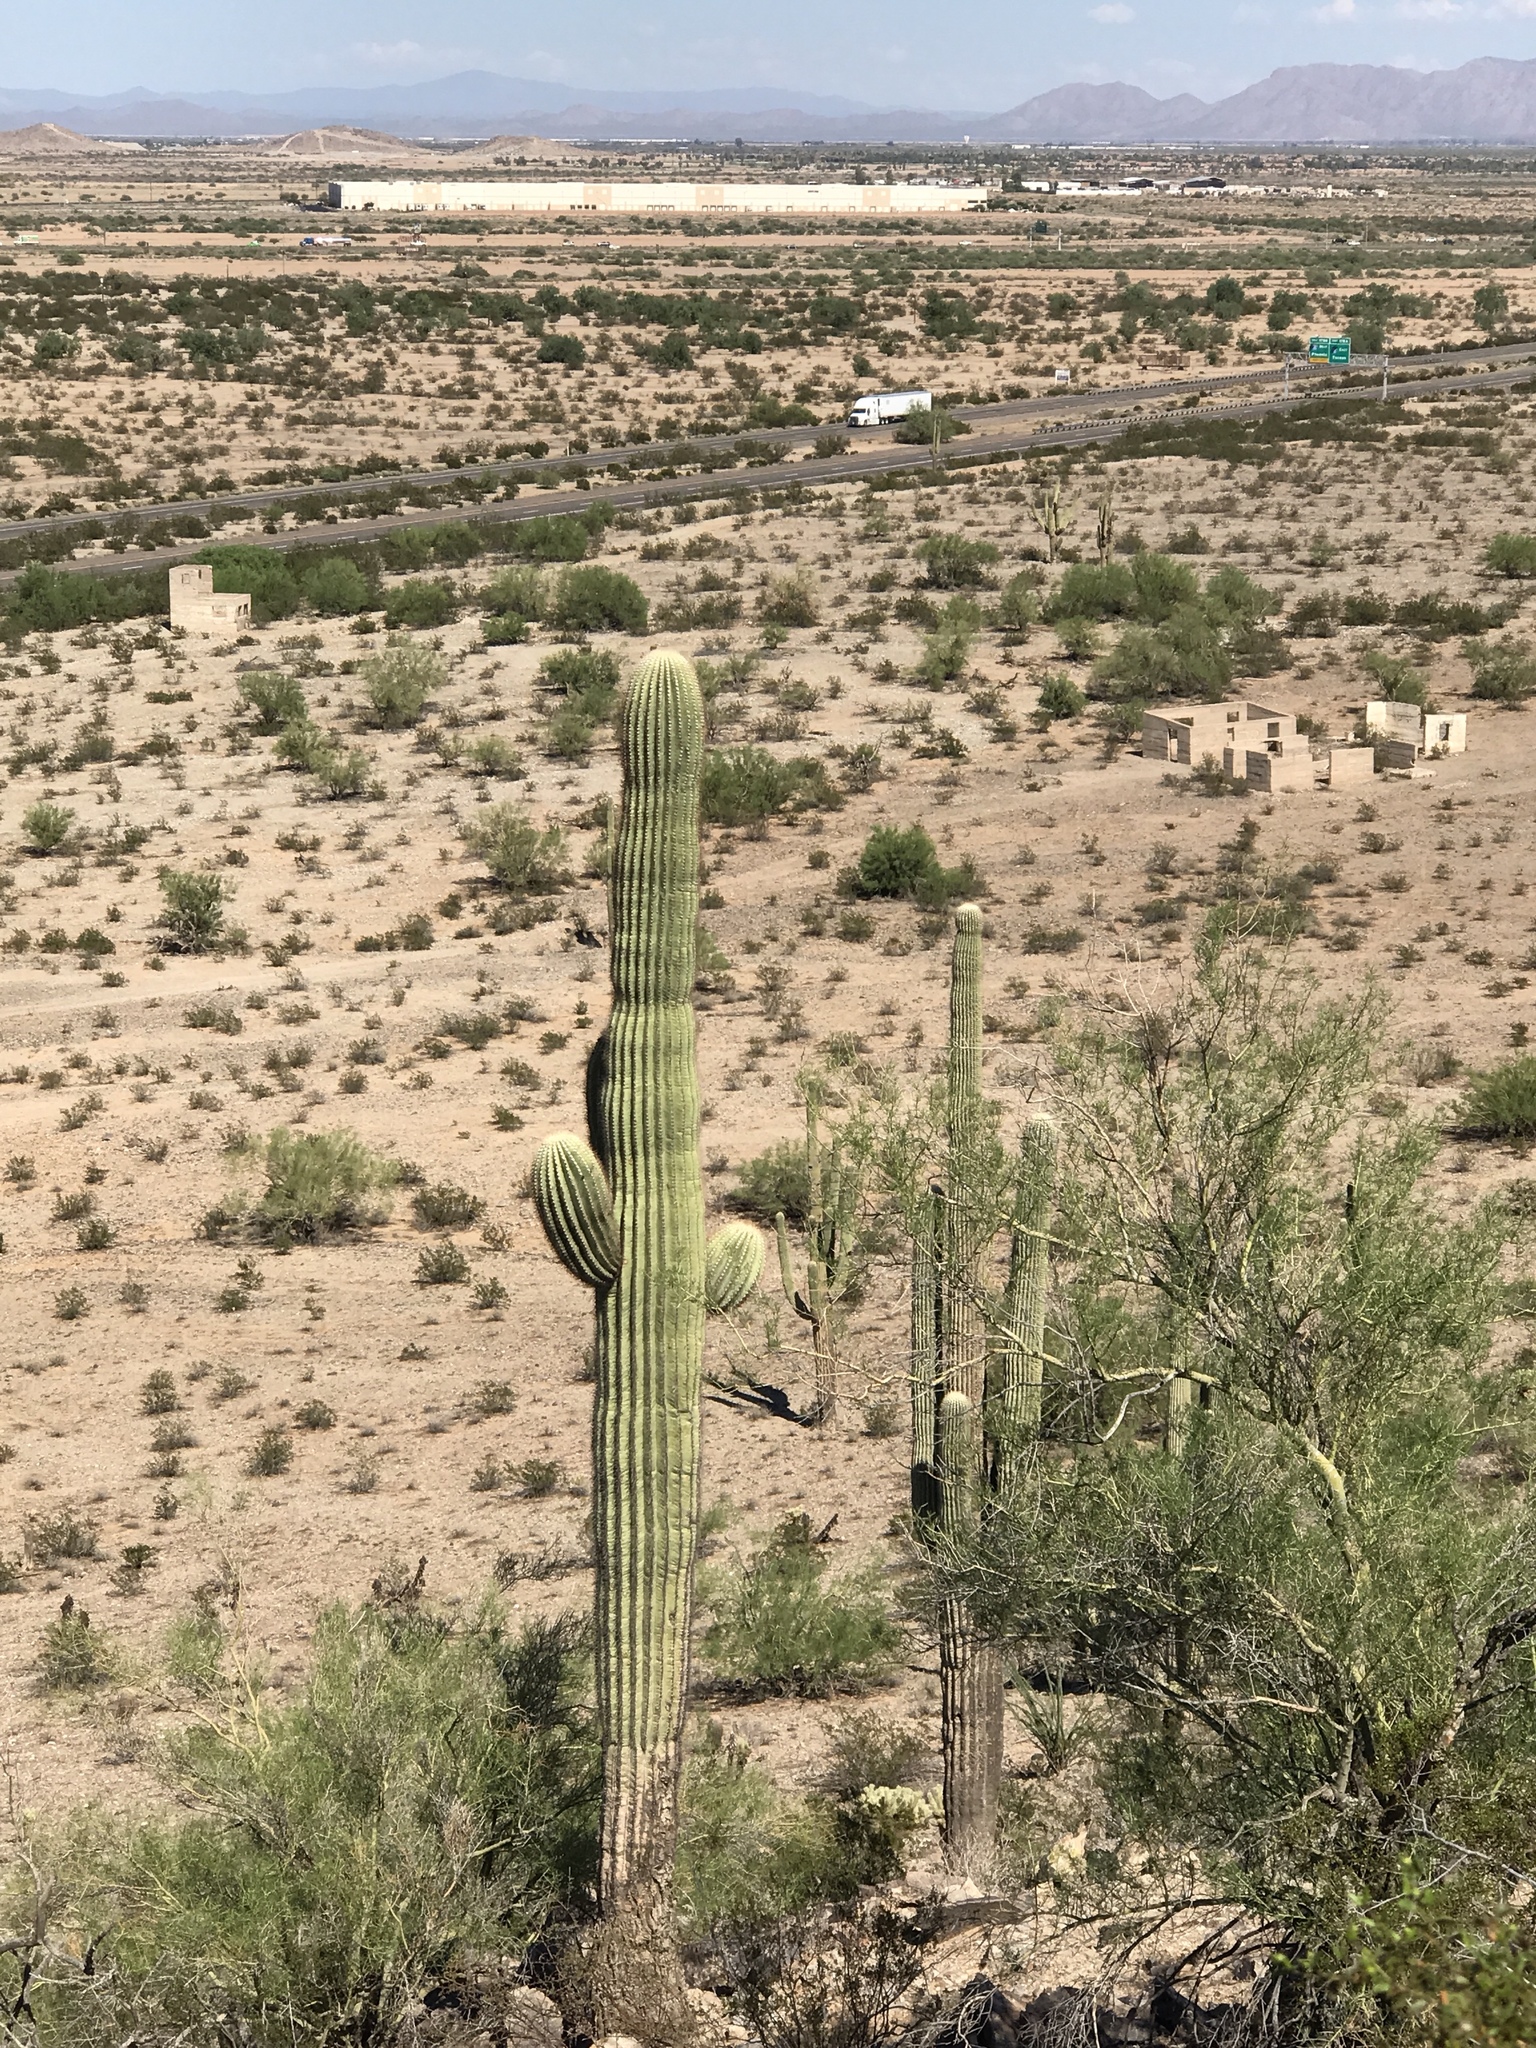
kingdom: Plantae
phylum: Tracheophyta
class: Magnoliopsida
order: Caryophyllales
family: Cactaceae
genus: Carnegiea
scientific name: Carnegiea gigantea
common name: Saguaro
